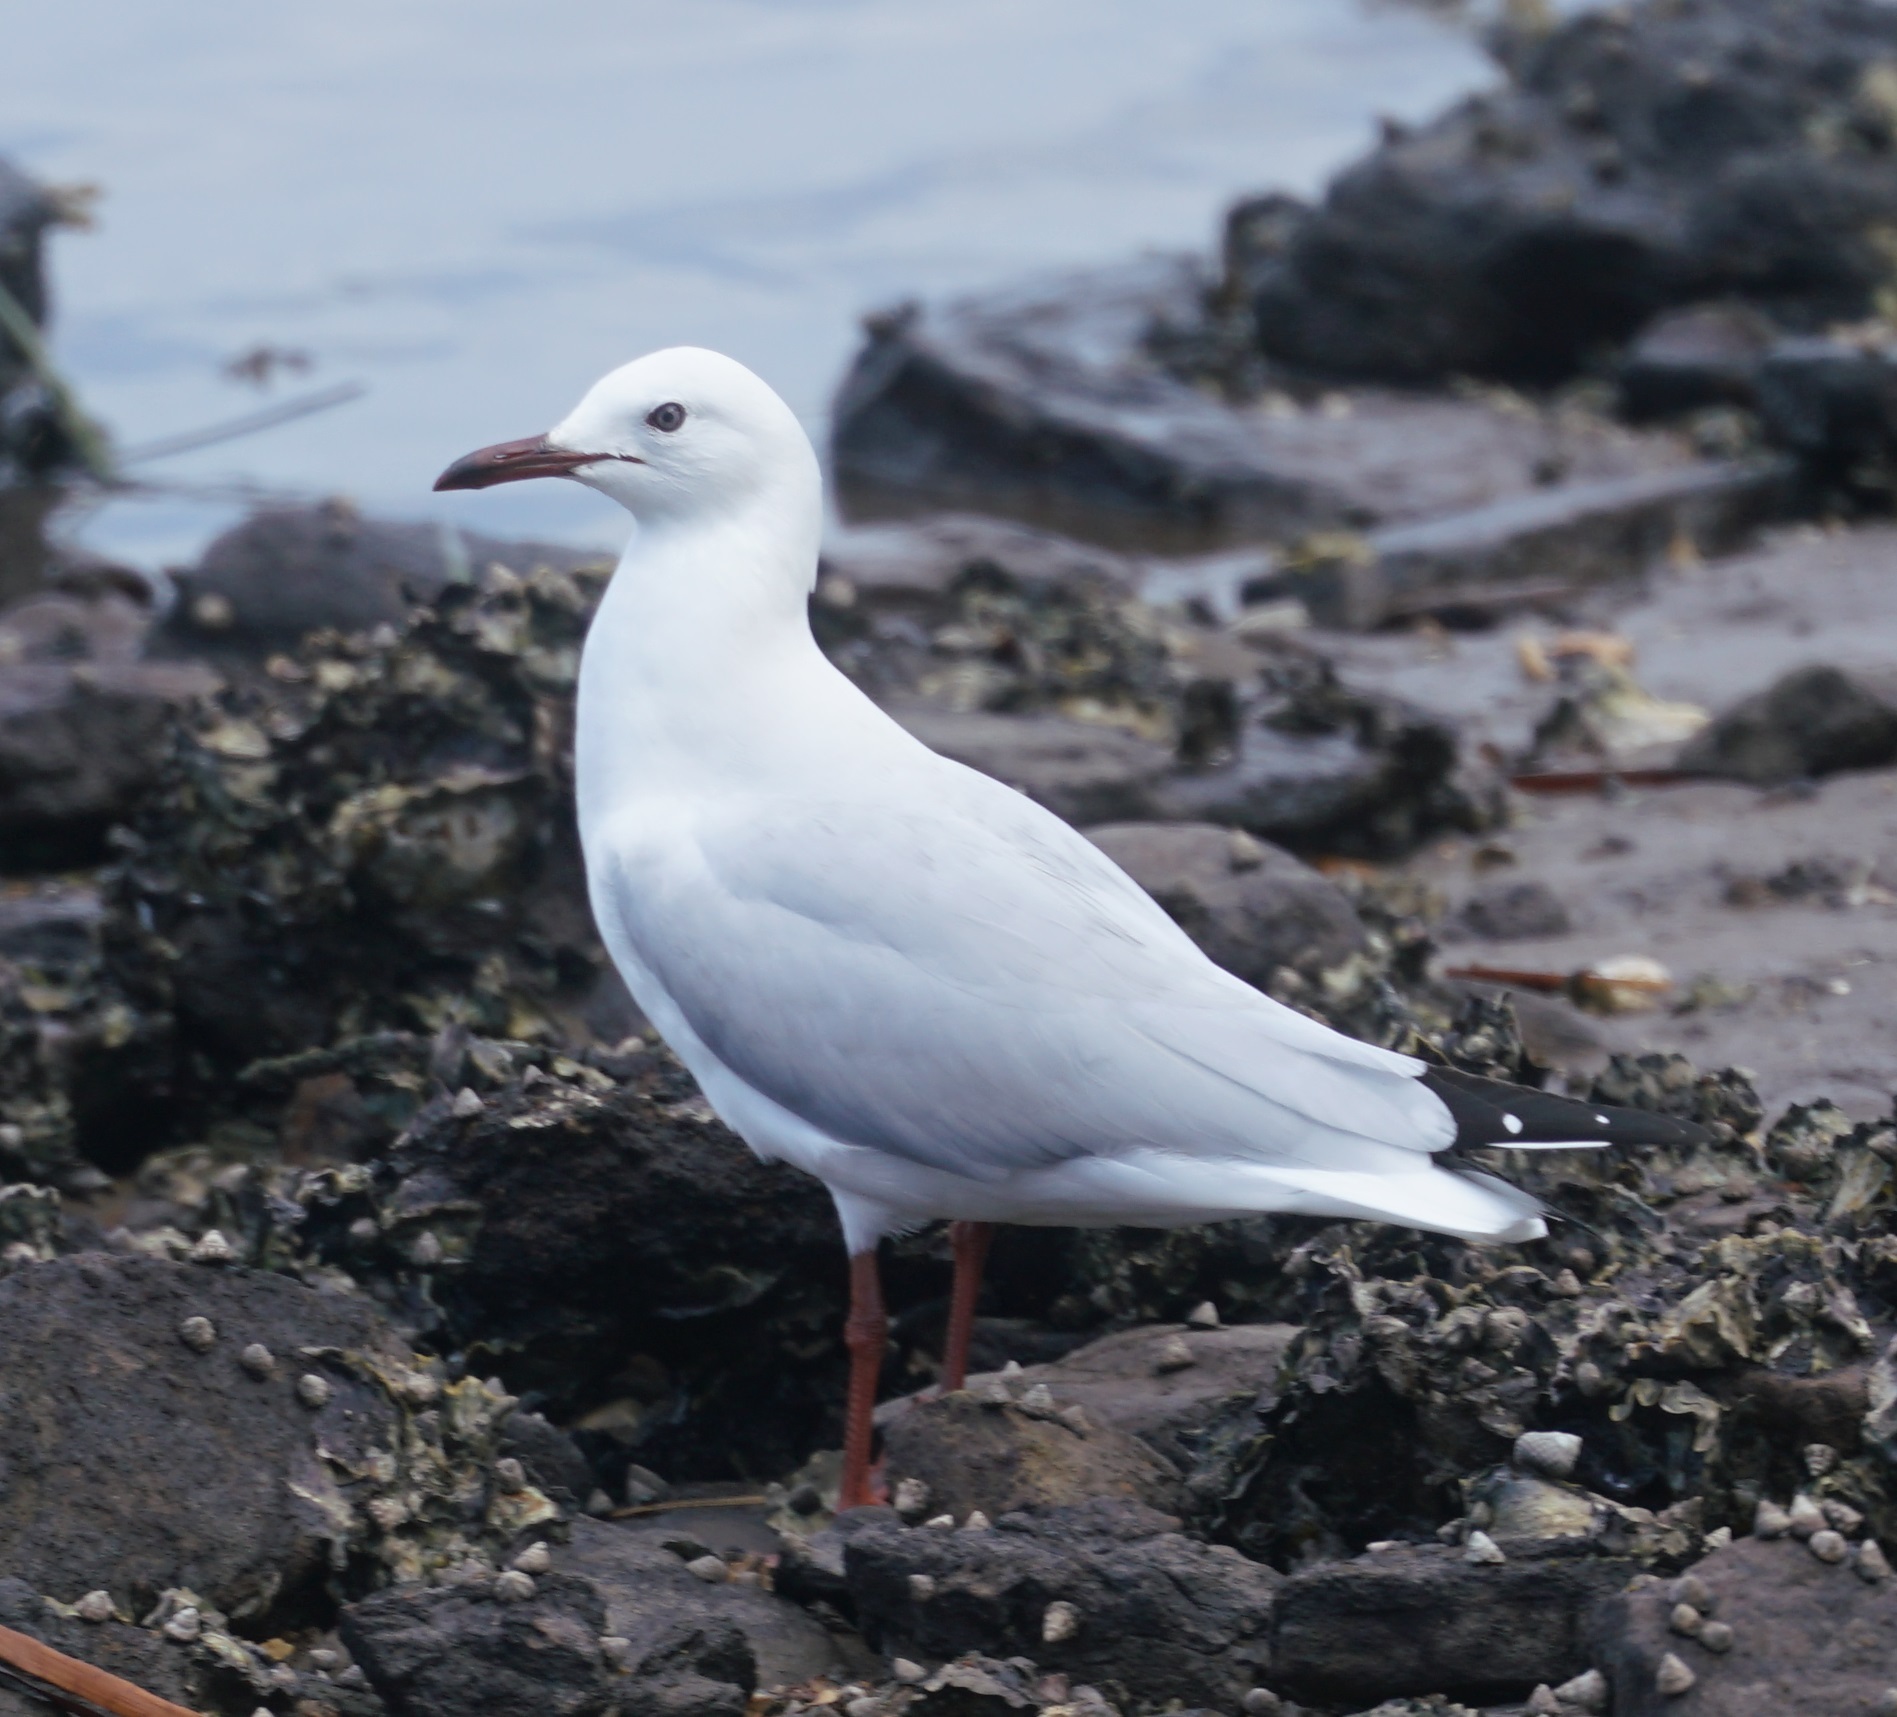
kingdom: Animalia
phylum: Chordata
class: Aves
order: Charadriiformes
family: Laridae
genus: Chroicocephalus
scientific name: Chroicocephalus novaehollandiae
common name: Silver gull
